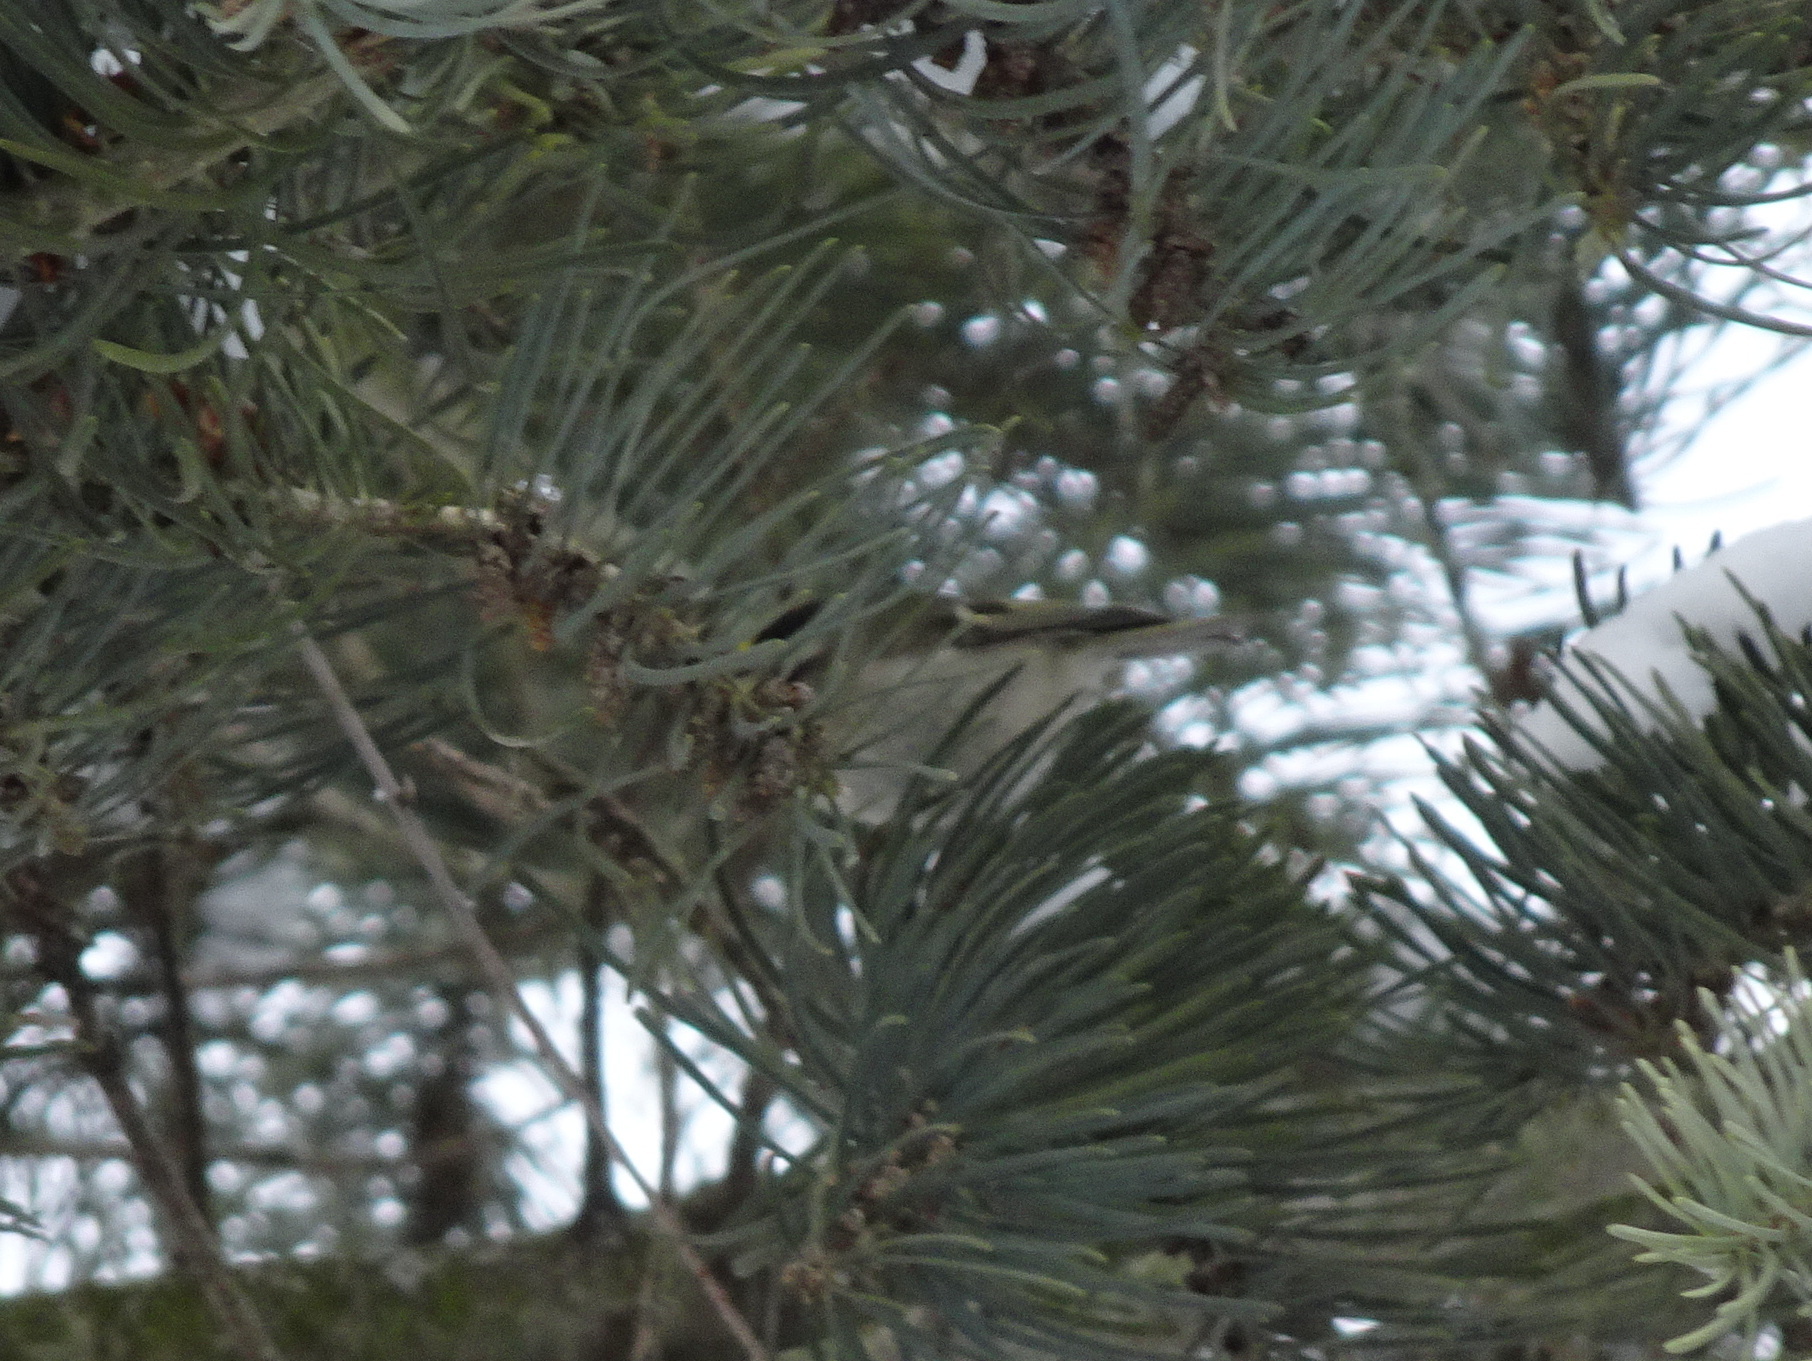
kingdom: Animalia
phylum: Chordata
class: Aves
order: Passeriformes
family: Regulidae
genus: Regulus
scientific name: Regulus satrapa
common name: Golden-crowned kinglet
